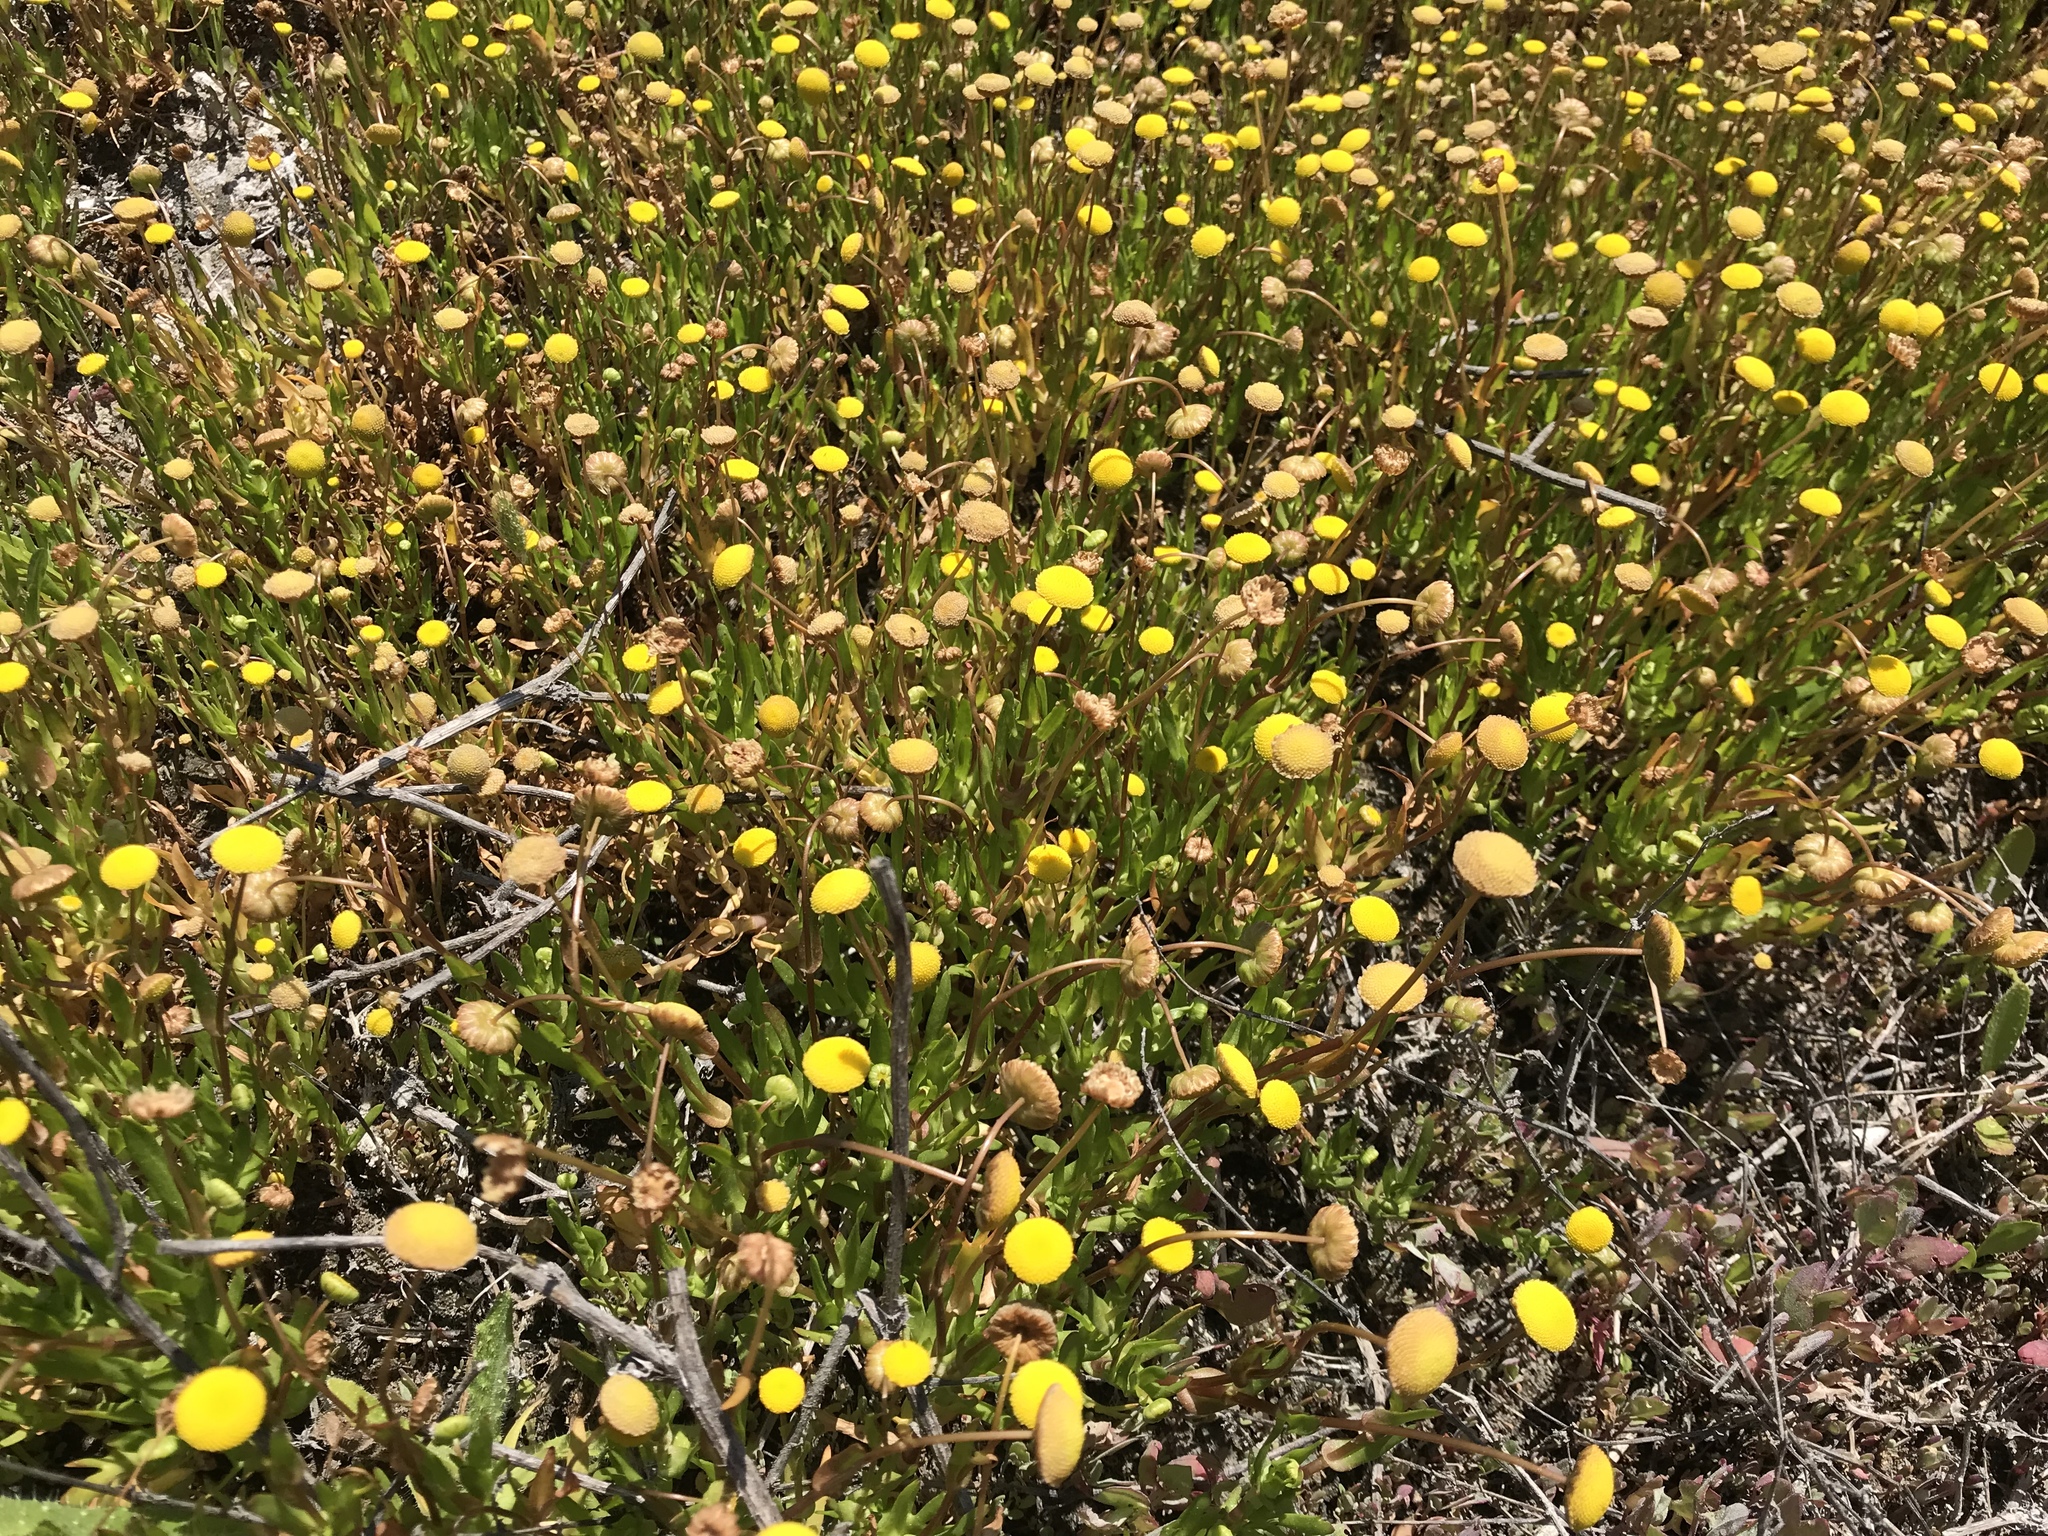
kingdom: Plantae
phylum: Tracheophyta
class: Magnoliopsida
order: Asterales
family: Asteraceae
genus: Cotula
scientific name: Cotula coronopifolia
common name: Buttonweed
